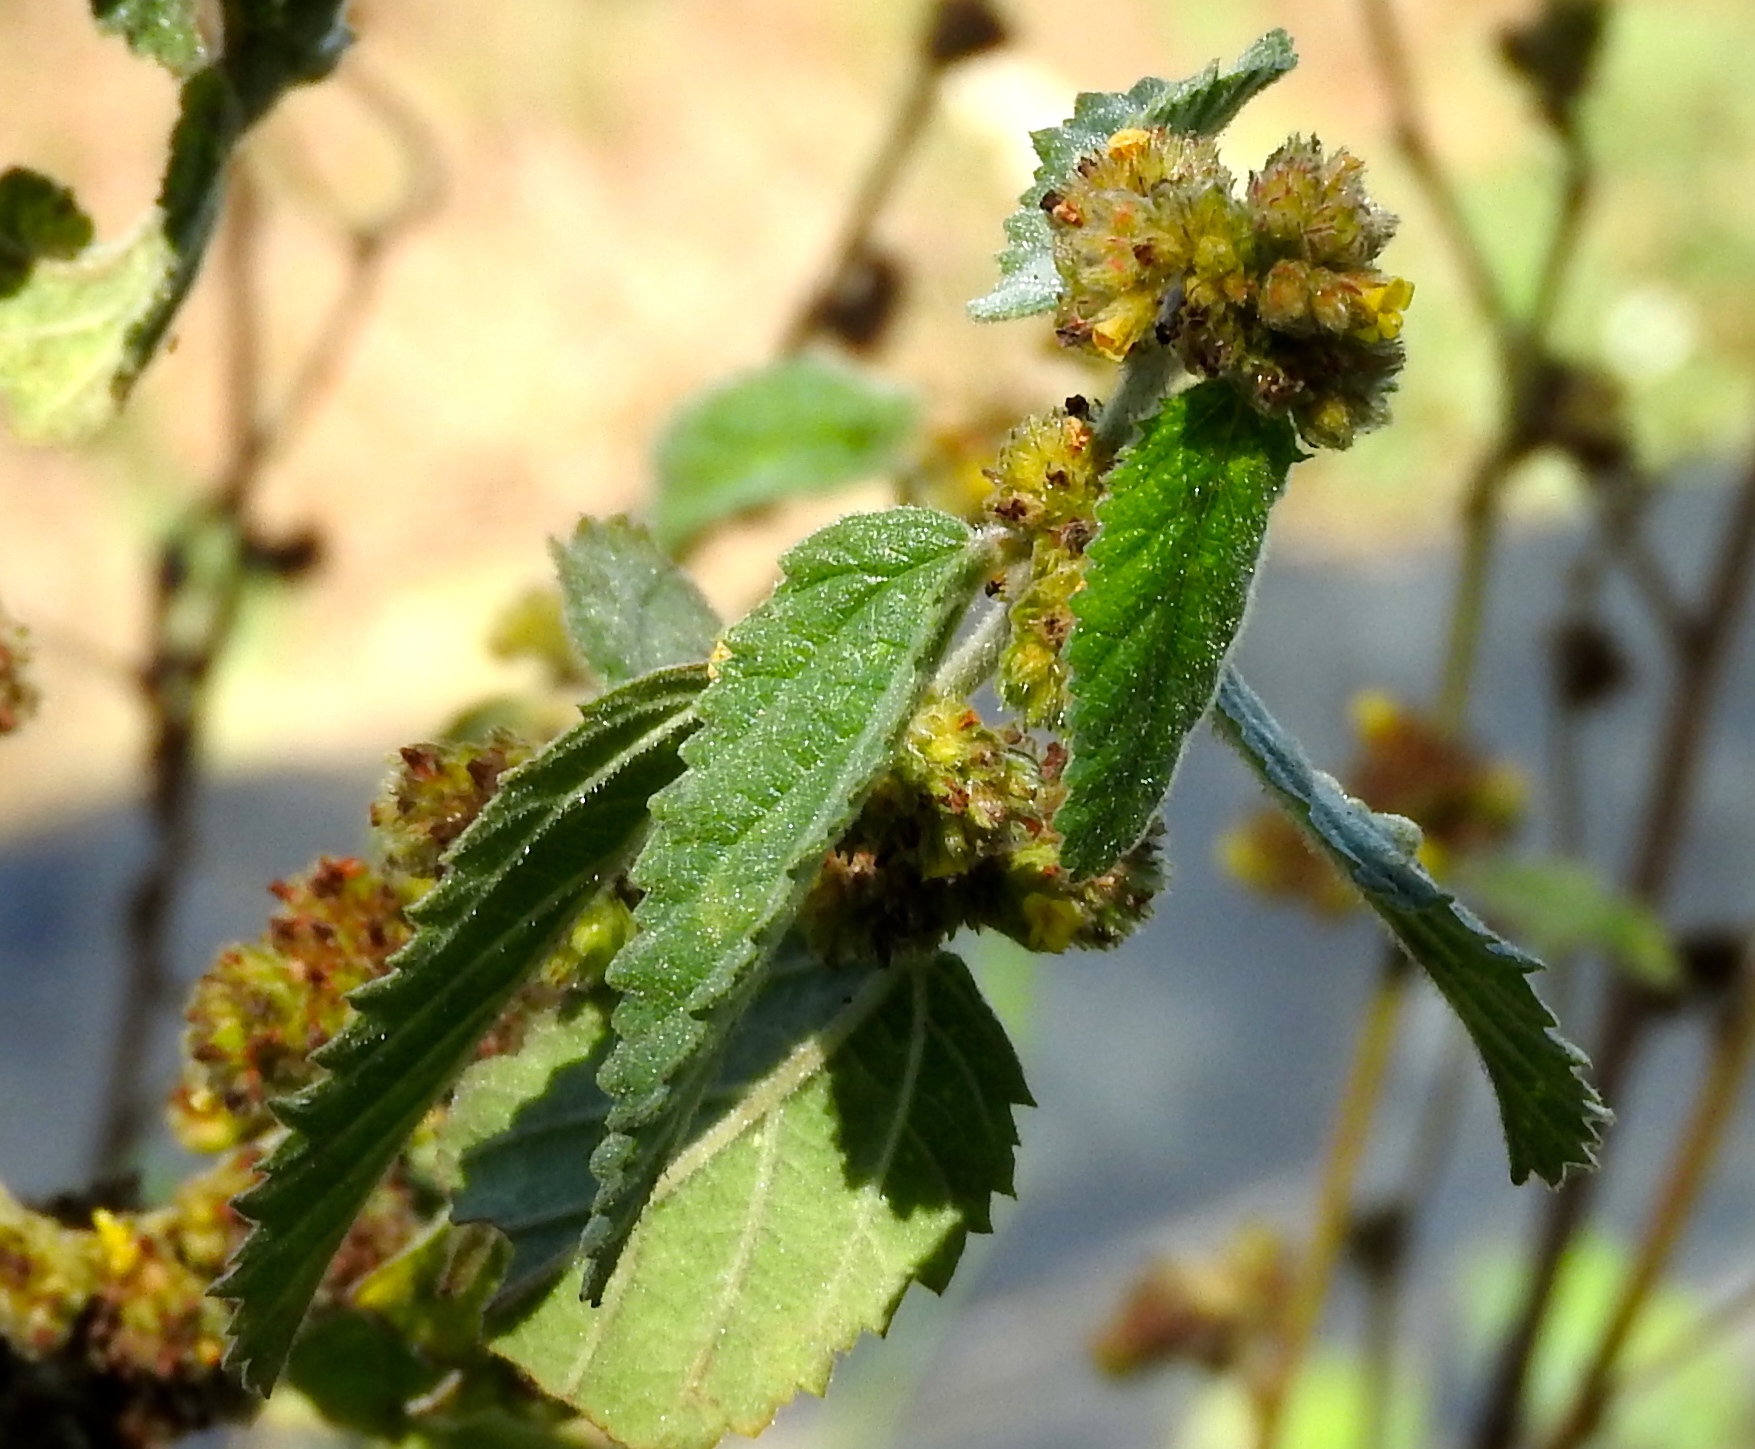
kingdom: Plantae
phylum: Tracheophyta
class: Magnoliopsida
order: Malvales
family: Malvaceae
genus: Waltheria
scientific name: Waltheria indica
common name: Leather-coat
